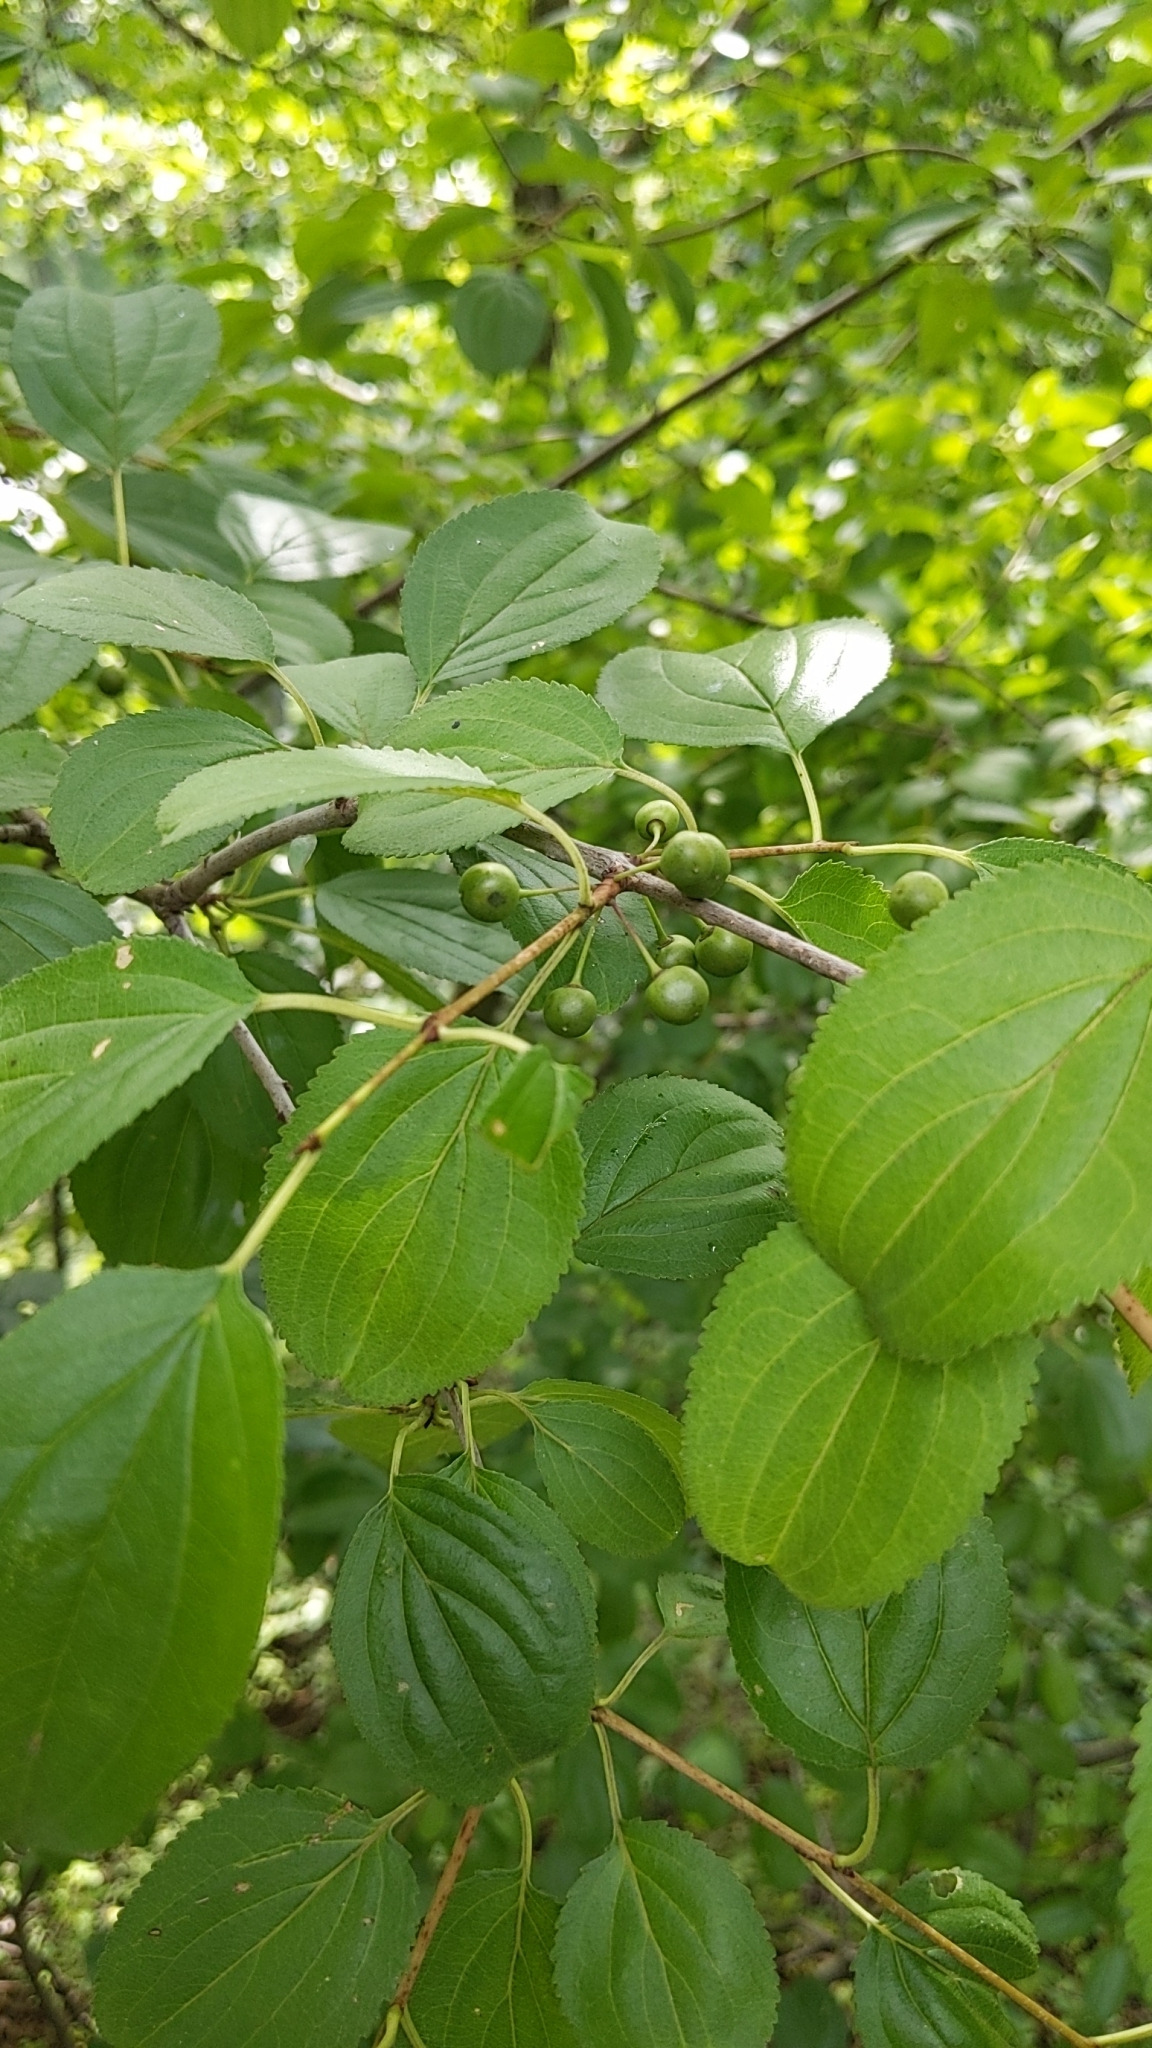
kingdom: Plantae
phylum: Tracheophyta
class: Magnoliopsida
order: Rosales
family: Rhamnaceae
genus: Rhamnus
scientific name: Rhamnus cathartica
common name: Common buckthorn
